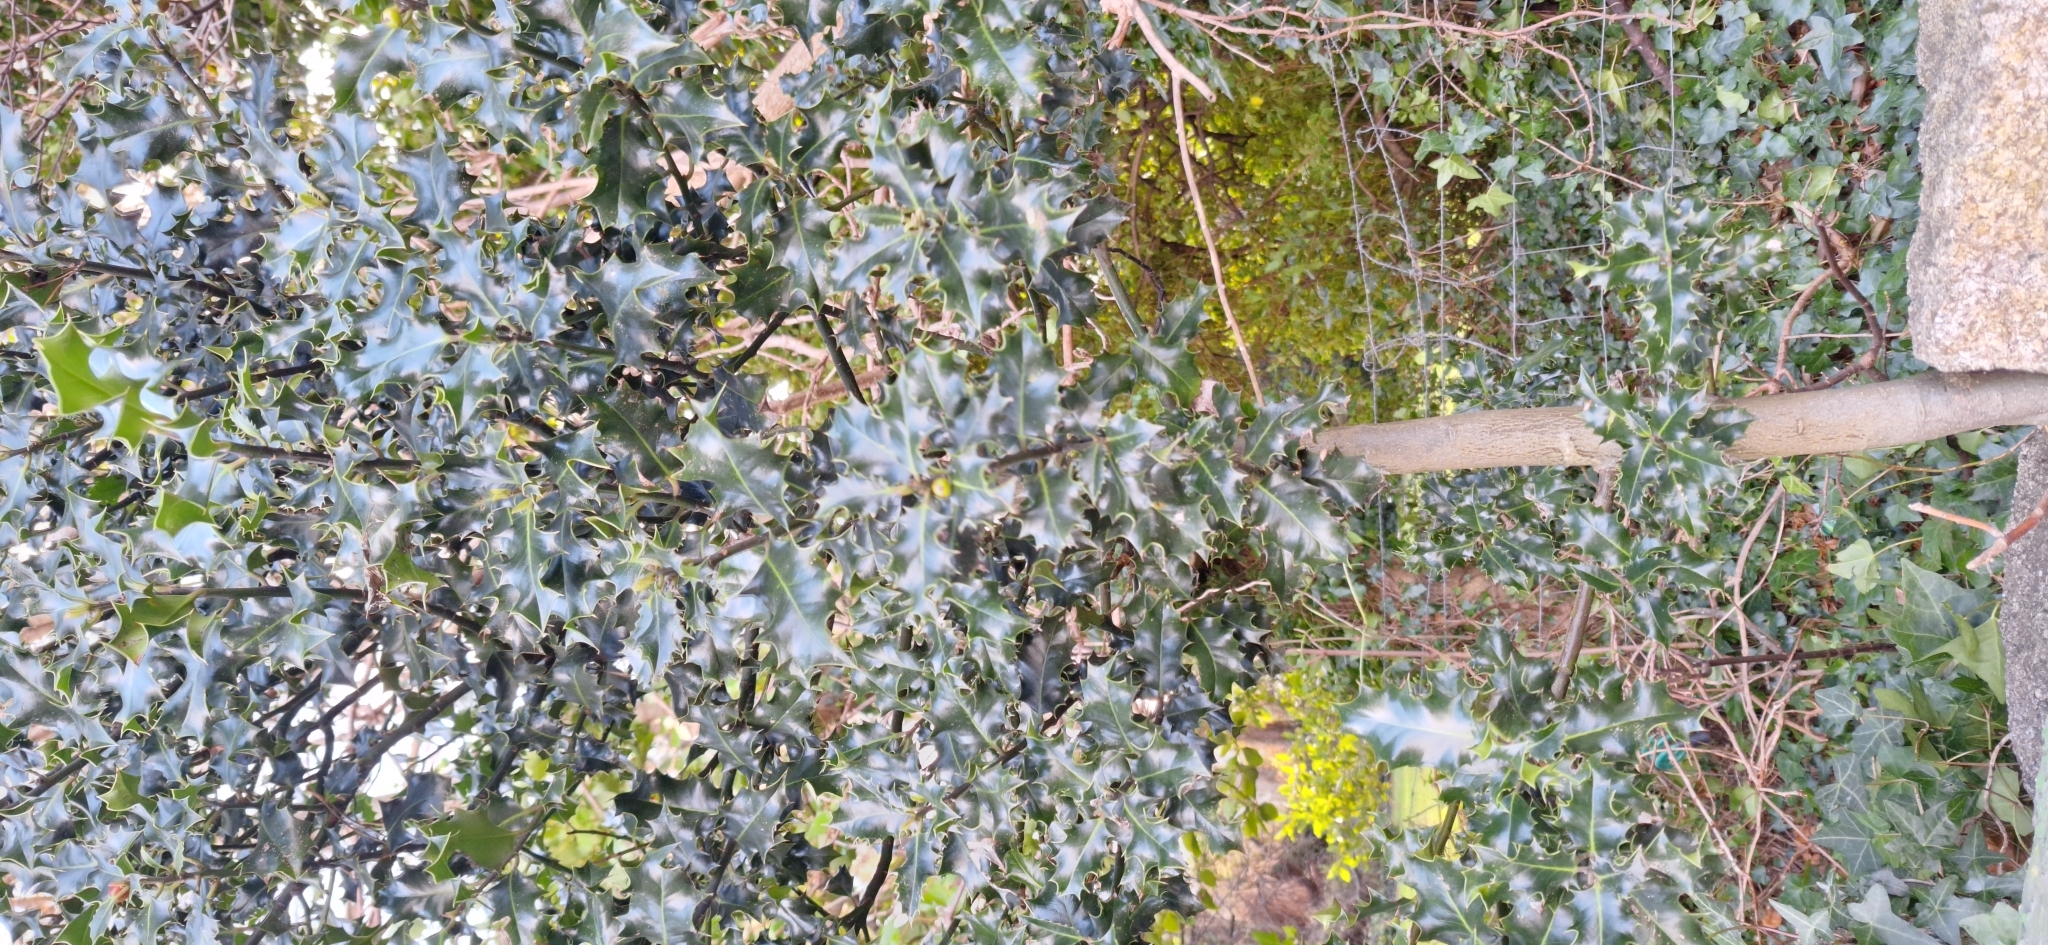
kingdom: Plantae
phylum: Tracheophyta
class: Magnoliopsida
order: Aquifoliales
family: Aquifoliaceae
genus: Ilex
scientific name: Ilex aquifolium
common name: English holly
